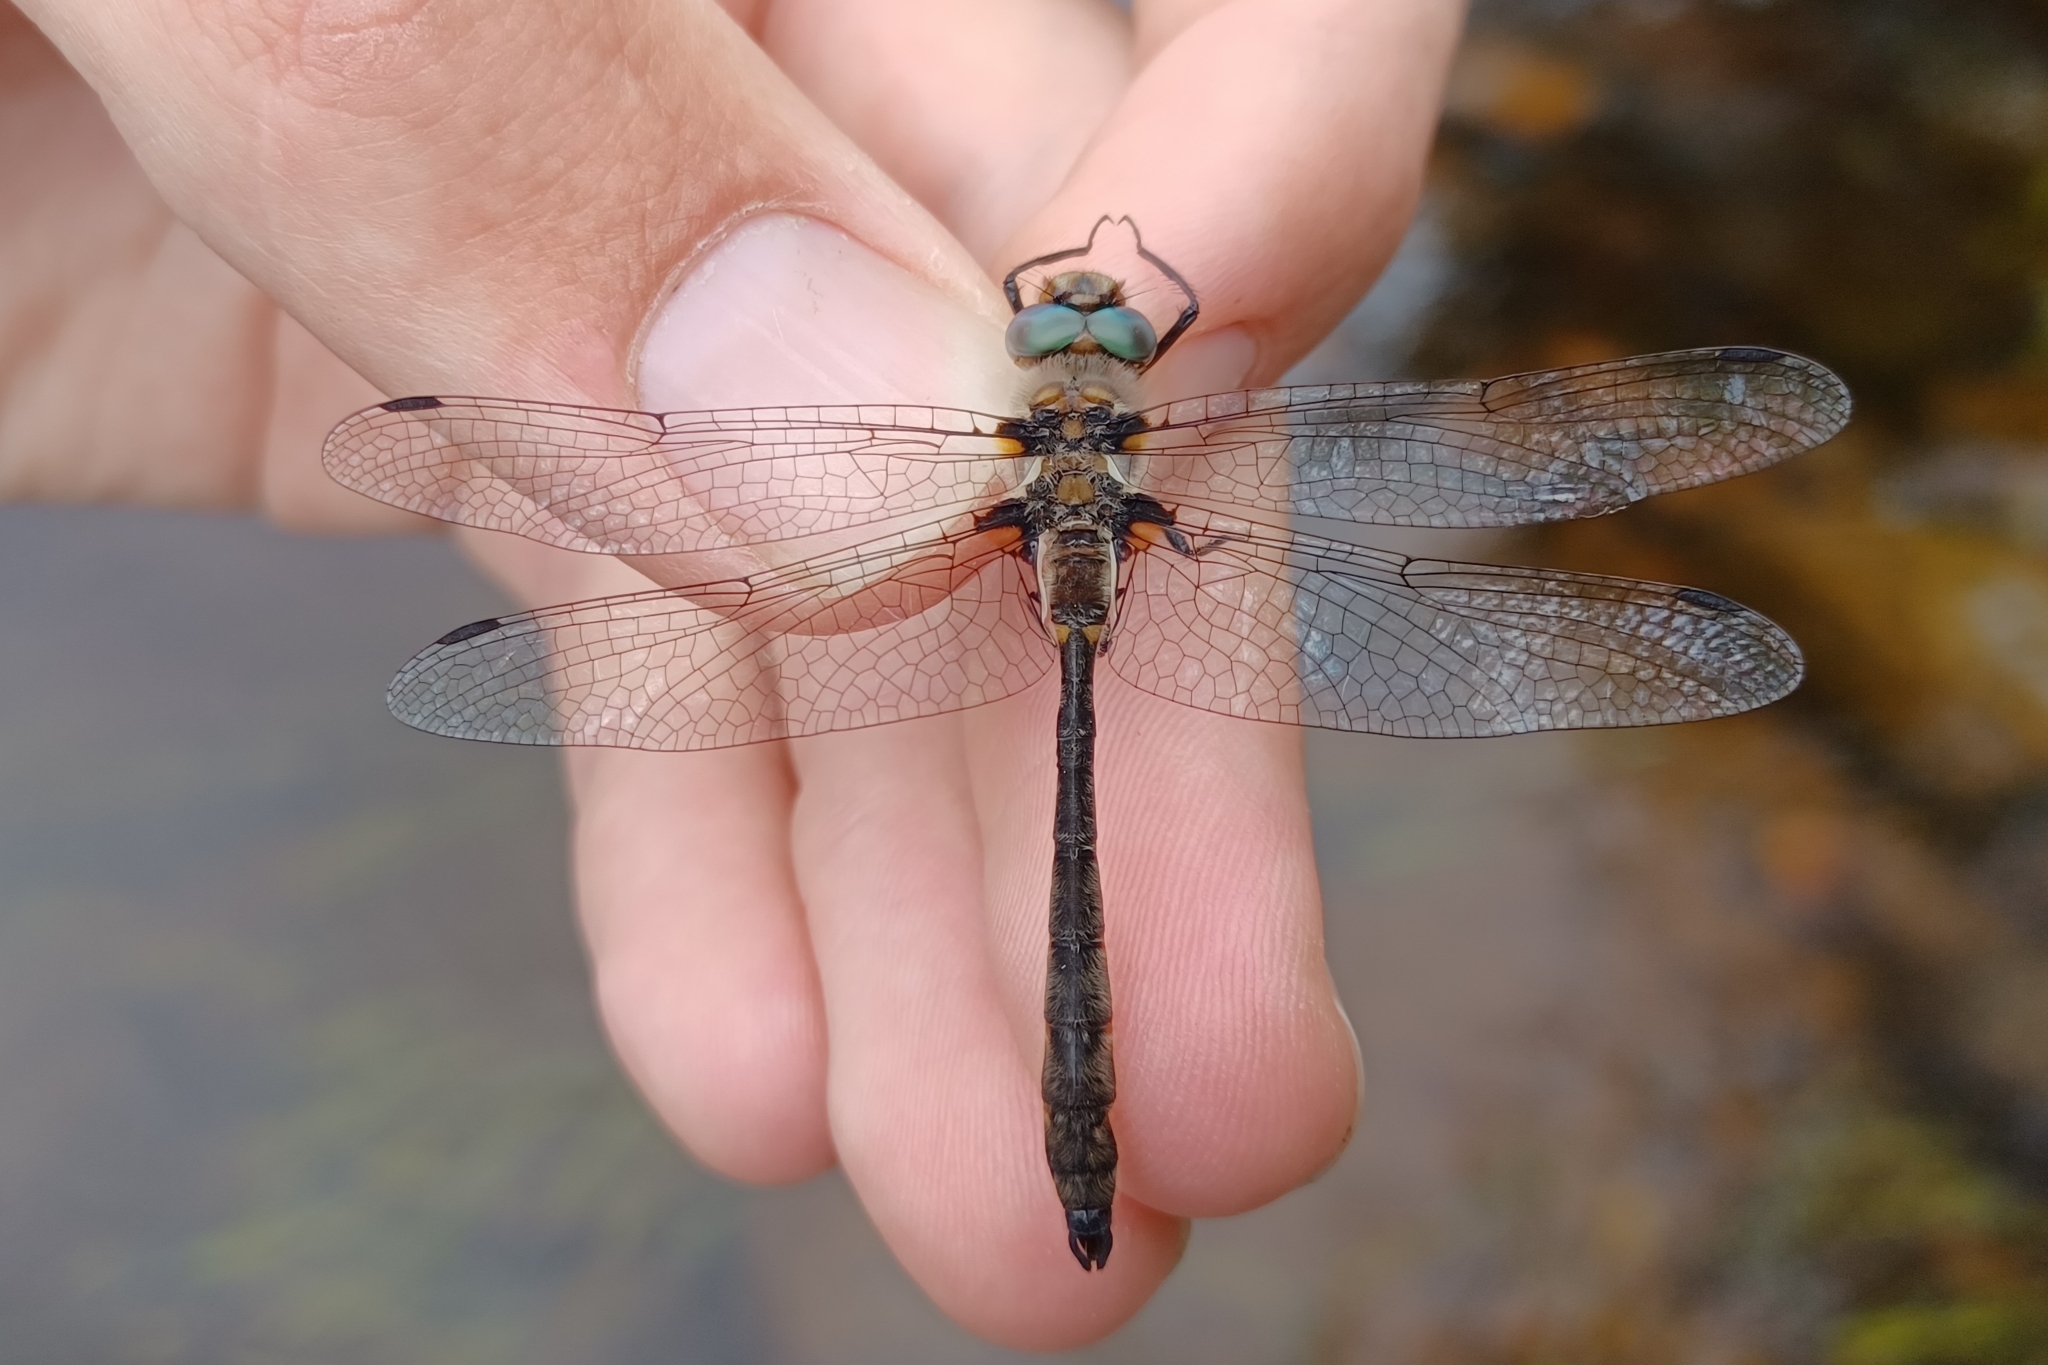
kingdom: Animalia
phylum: Arthropoda
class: Insecta
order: Odonata
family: Corduliidae
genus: Helocordulia
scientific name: Helocordulia uhleri
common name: Uhler's sundragon
